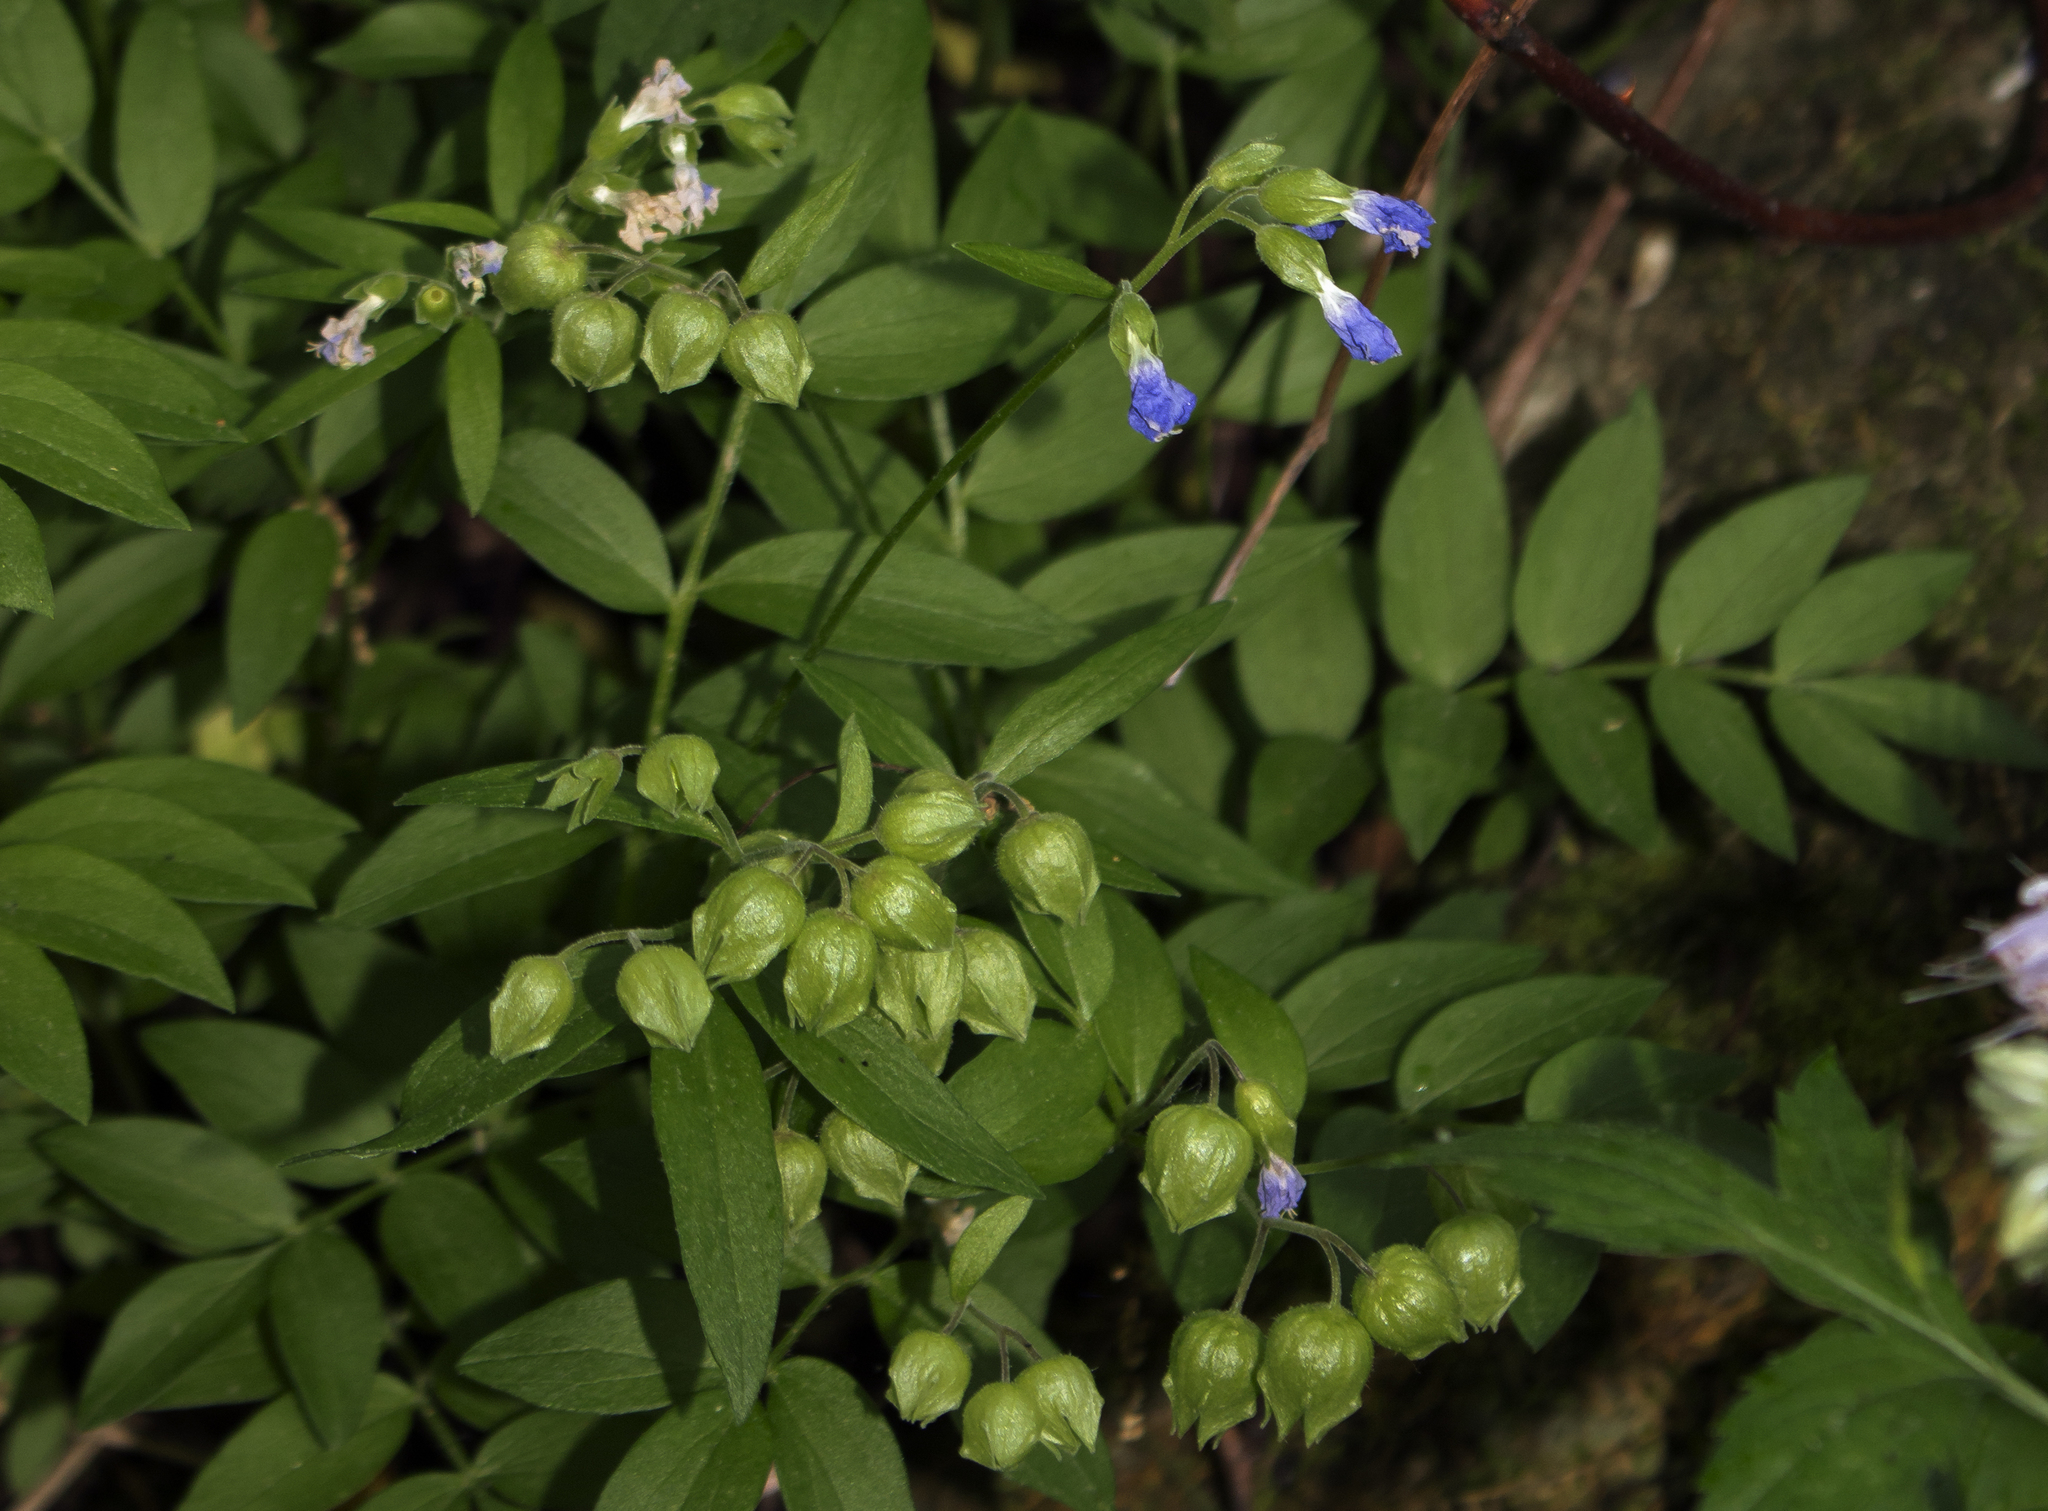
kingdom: Plantae
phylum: Tracheophyta
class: Magnoliopsida
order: Ericales
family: Polemoniaceae
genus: Polemonium
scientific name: Polemonium reptans
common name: Creeping jacob's-ladder
